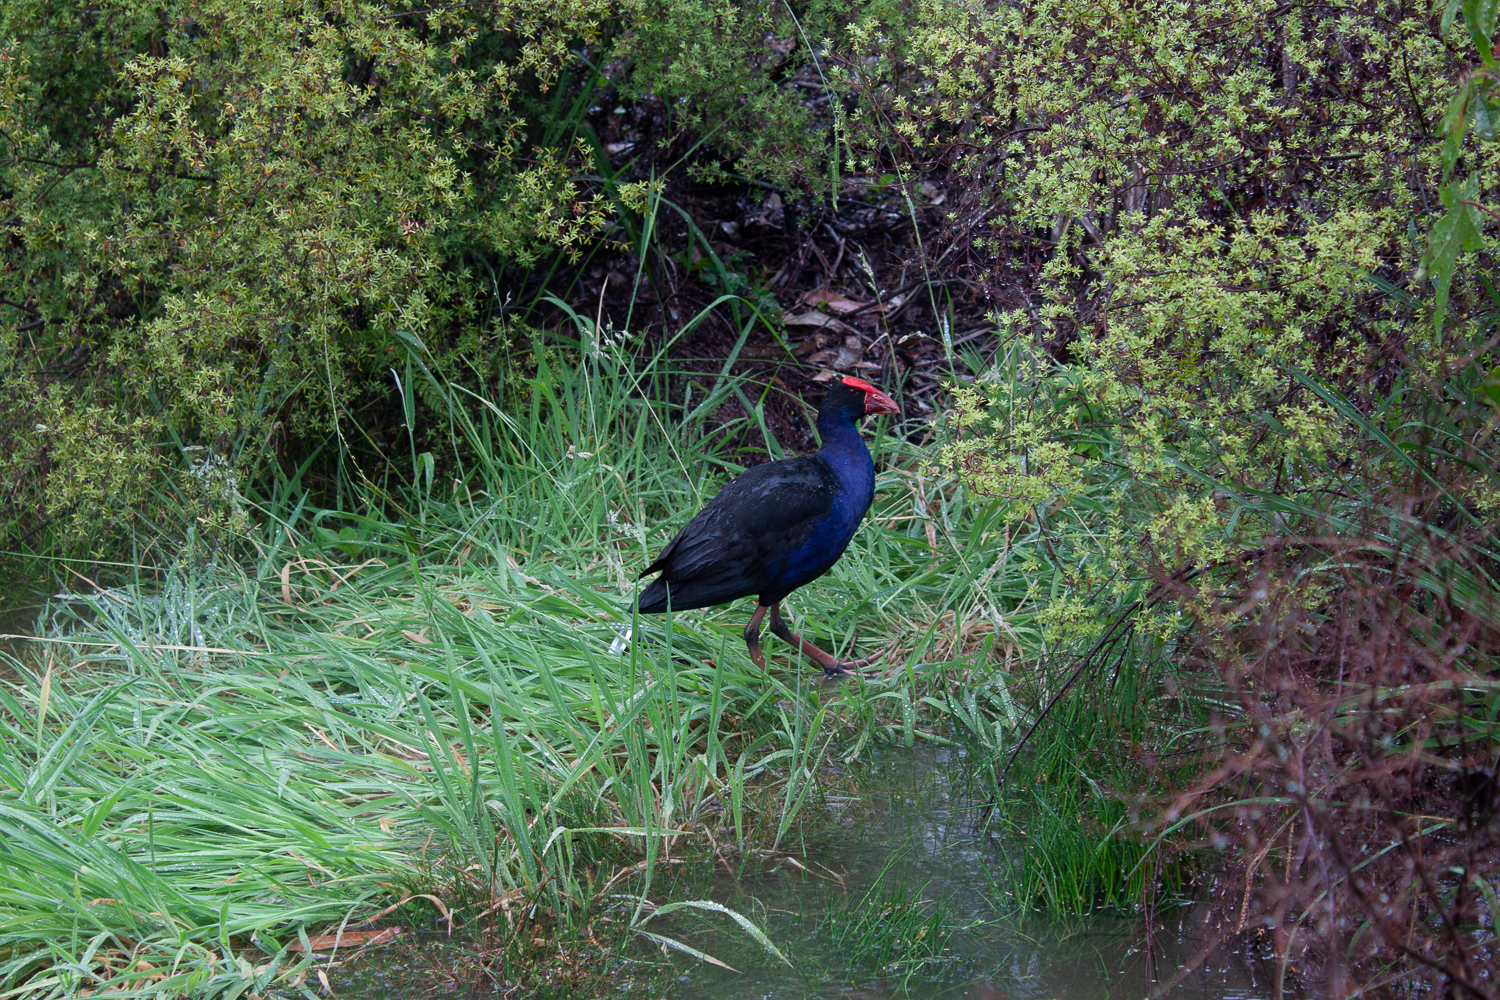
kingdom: Animalia
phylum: Chordata
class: Aves
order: Gruiformes
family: Rallidae
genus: Porphyrio
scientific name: Porphyrio melanotus
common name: Australasian swamphen
